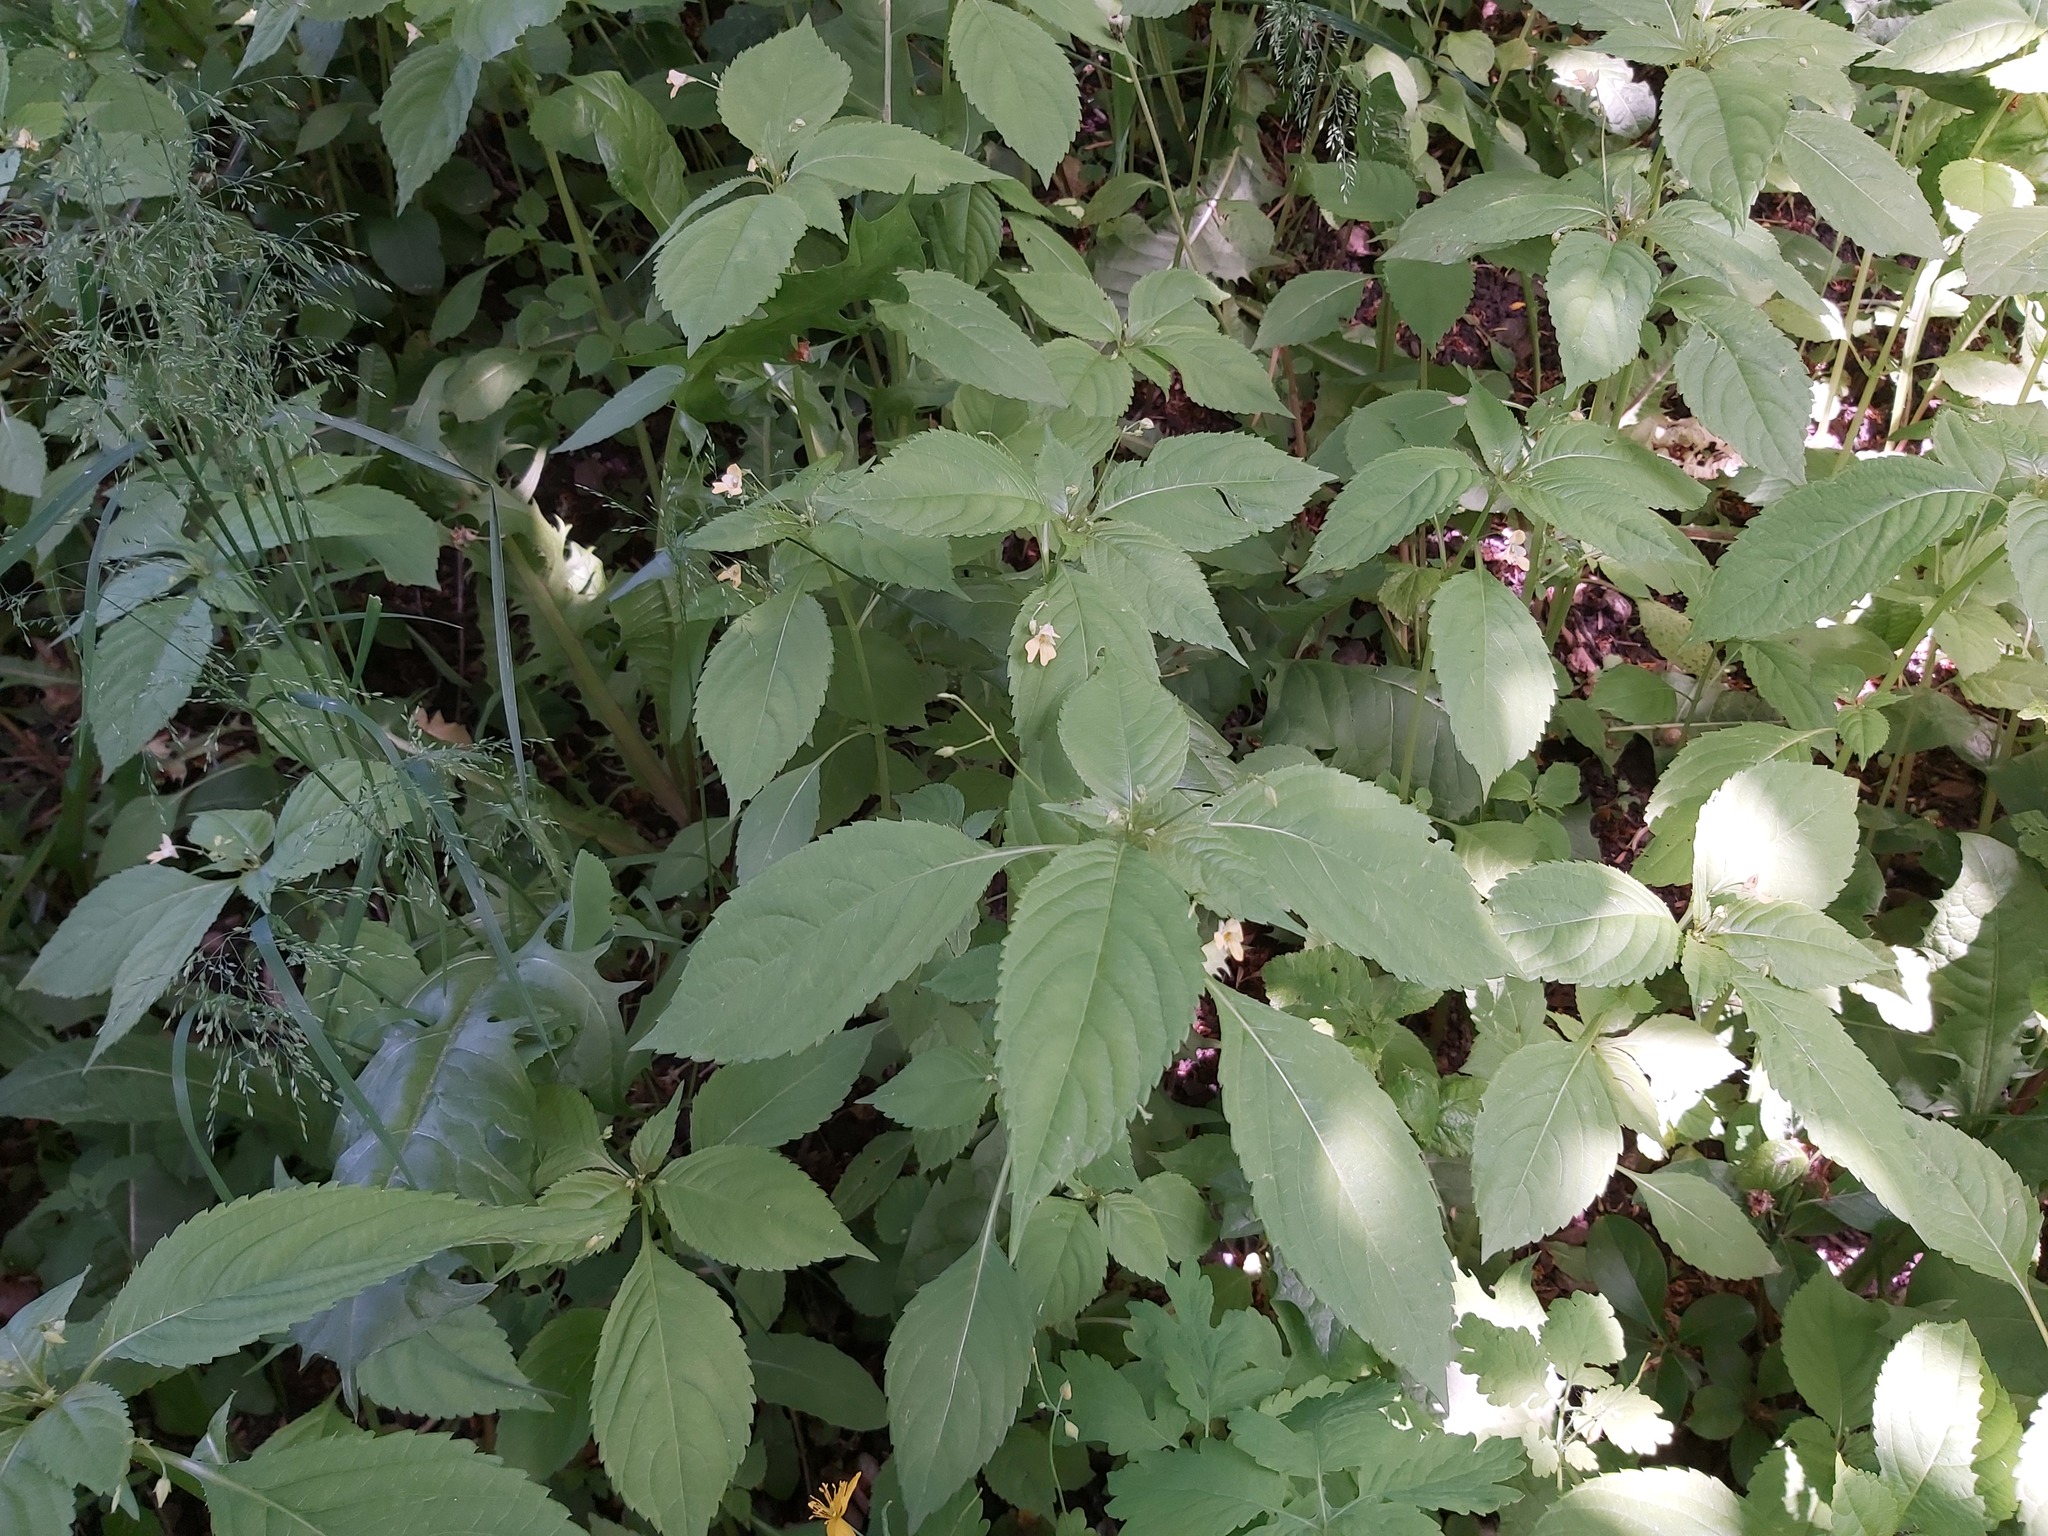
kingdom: Plantae
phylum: Tracheophyta
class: Magnoliopsida
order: Ericales
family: Balsaminaceae
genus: Impatiens
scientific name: Impatiens parviflora
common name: Small balsam
